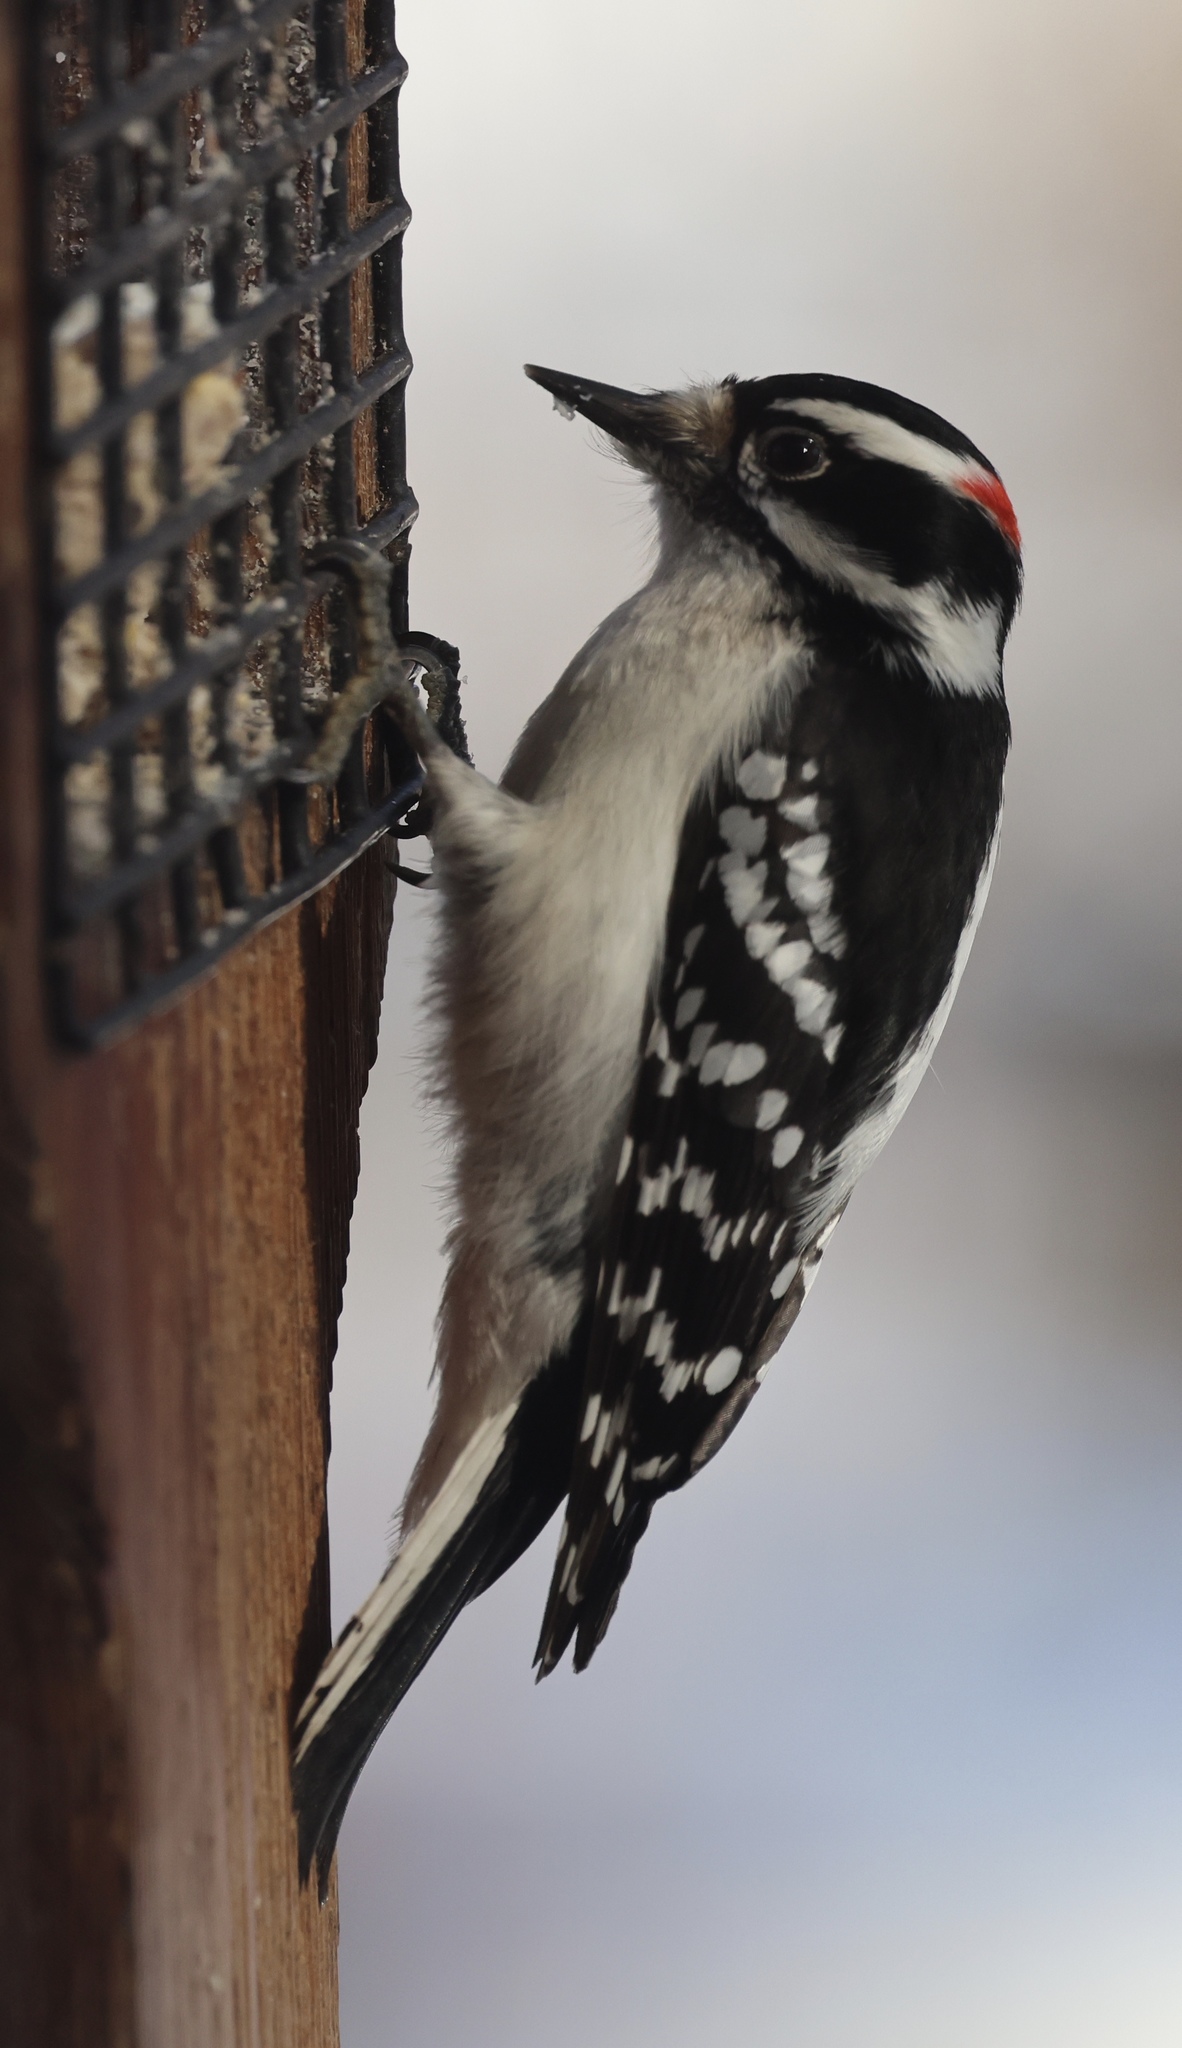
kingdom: Animalia
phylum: Chordata
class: Aves
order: Piciformes
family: Picidae
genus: Dryobates
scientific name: Dryobates pubescens
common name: Downy woodpecker
